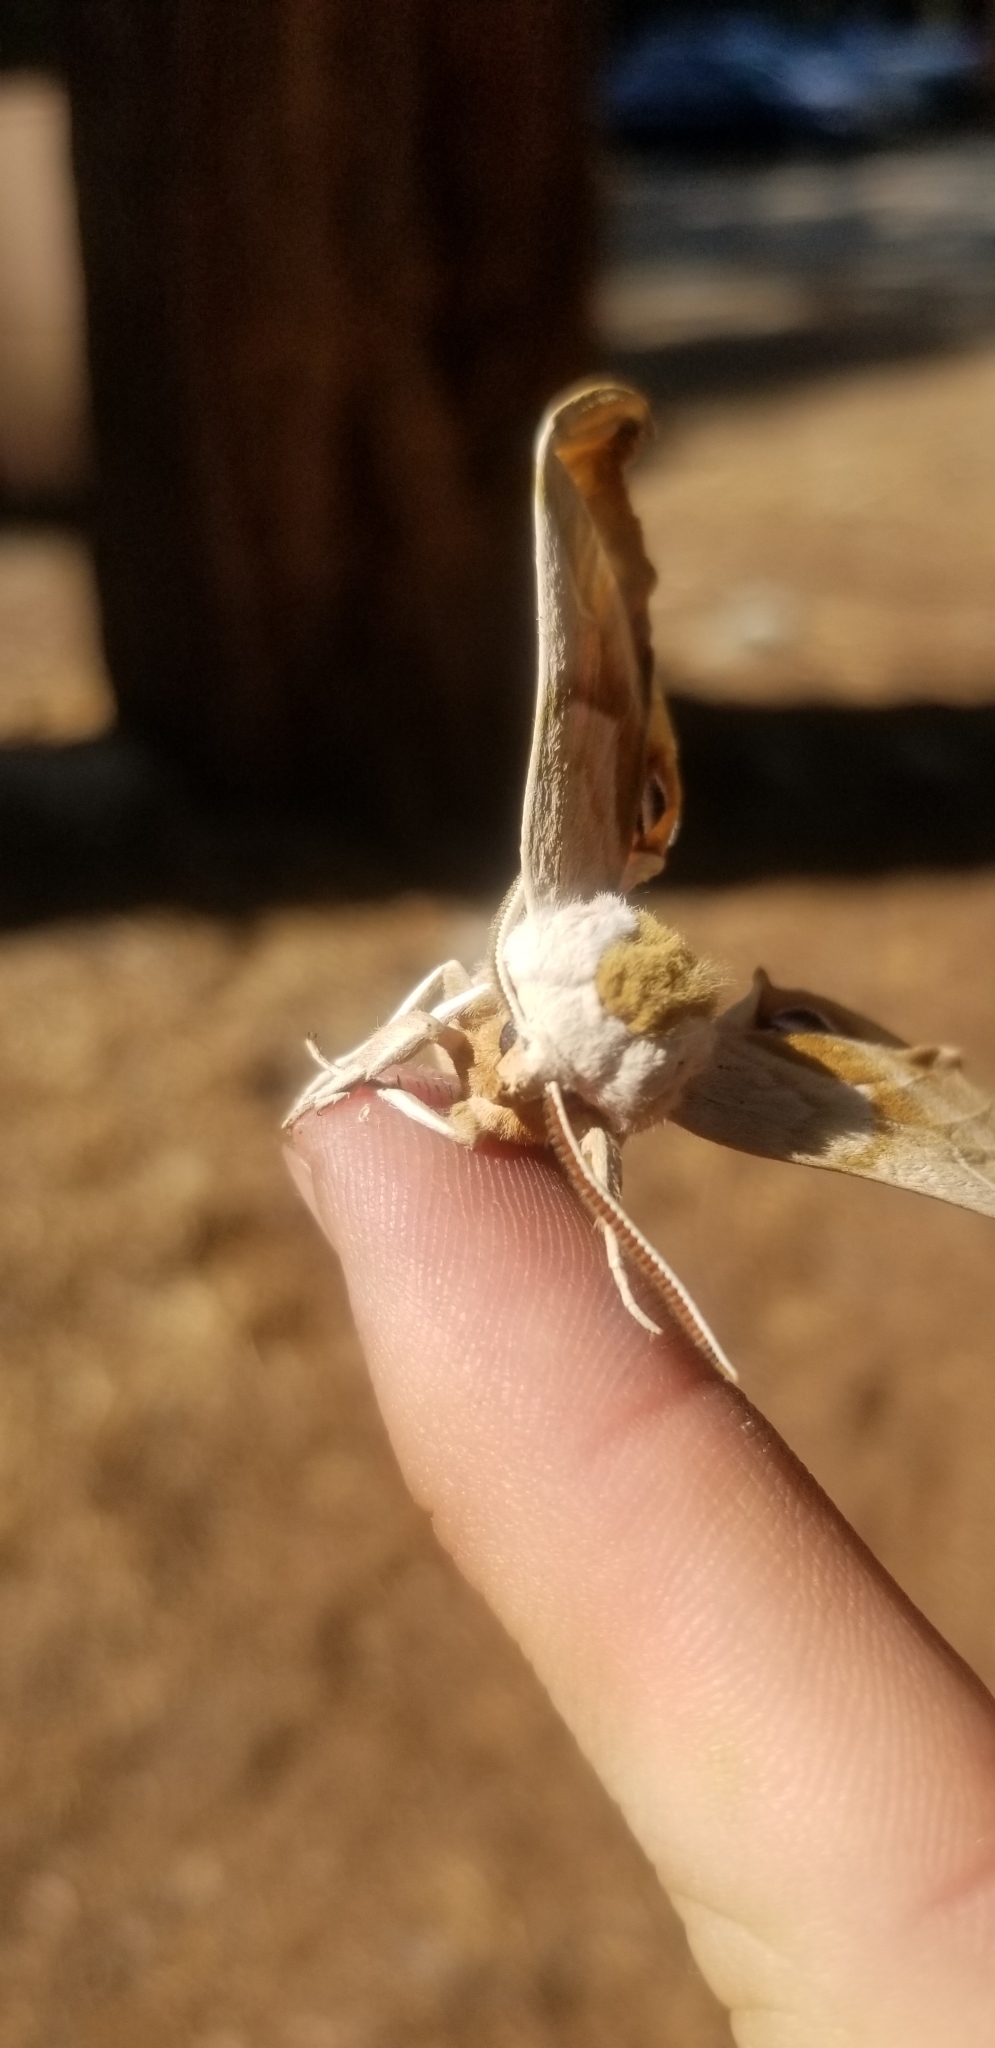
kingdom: Animalia
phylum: Arthropoda
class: Insecta
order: Lepidoptera
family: Sphingidae
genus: Smerinthus
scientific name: Smerinthus cerisyi
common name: Cerisy's sphinx moth
